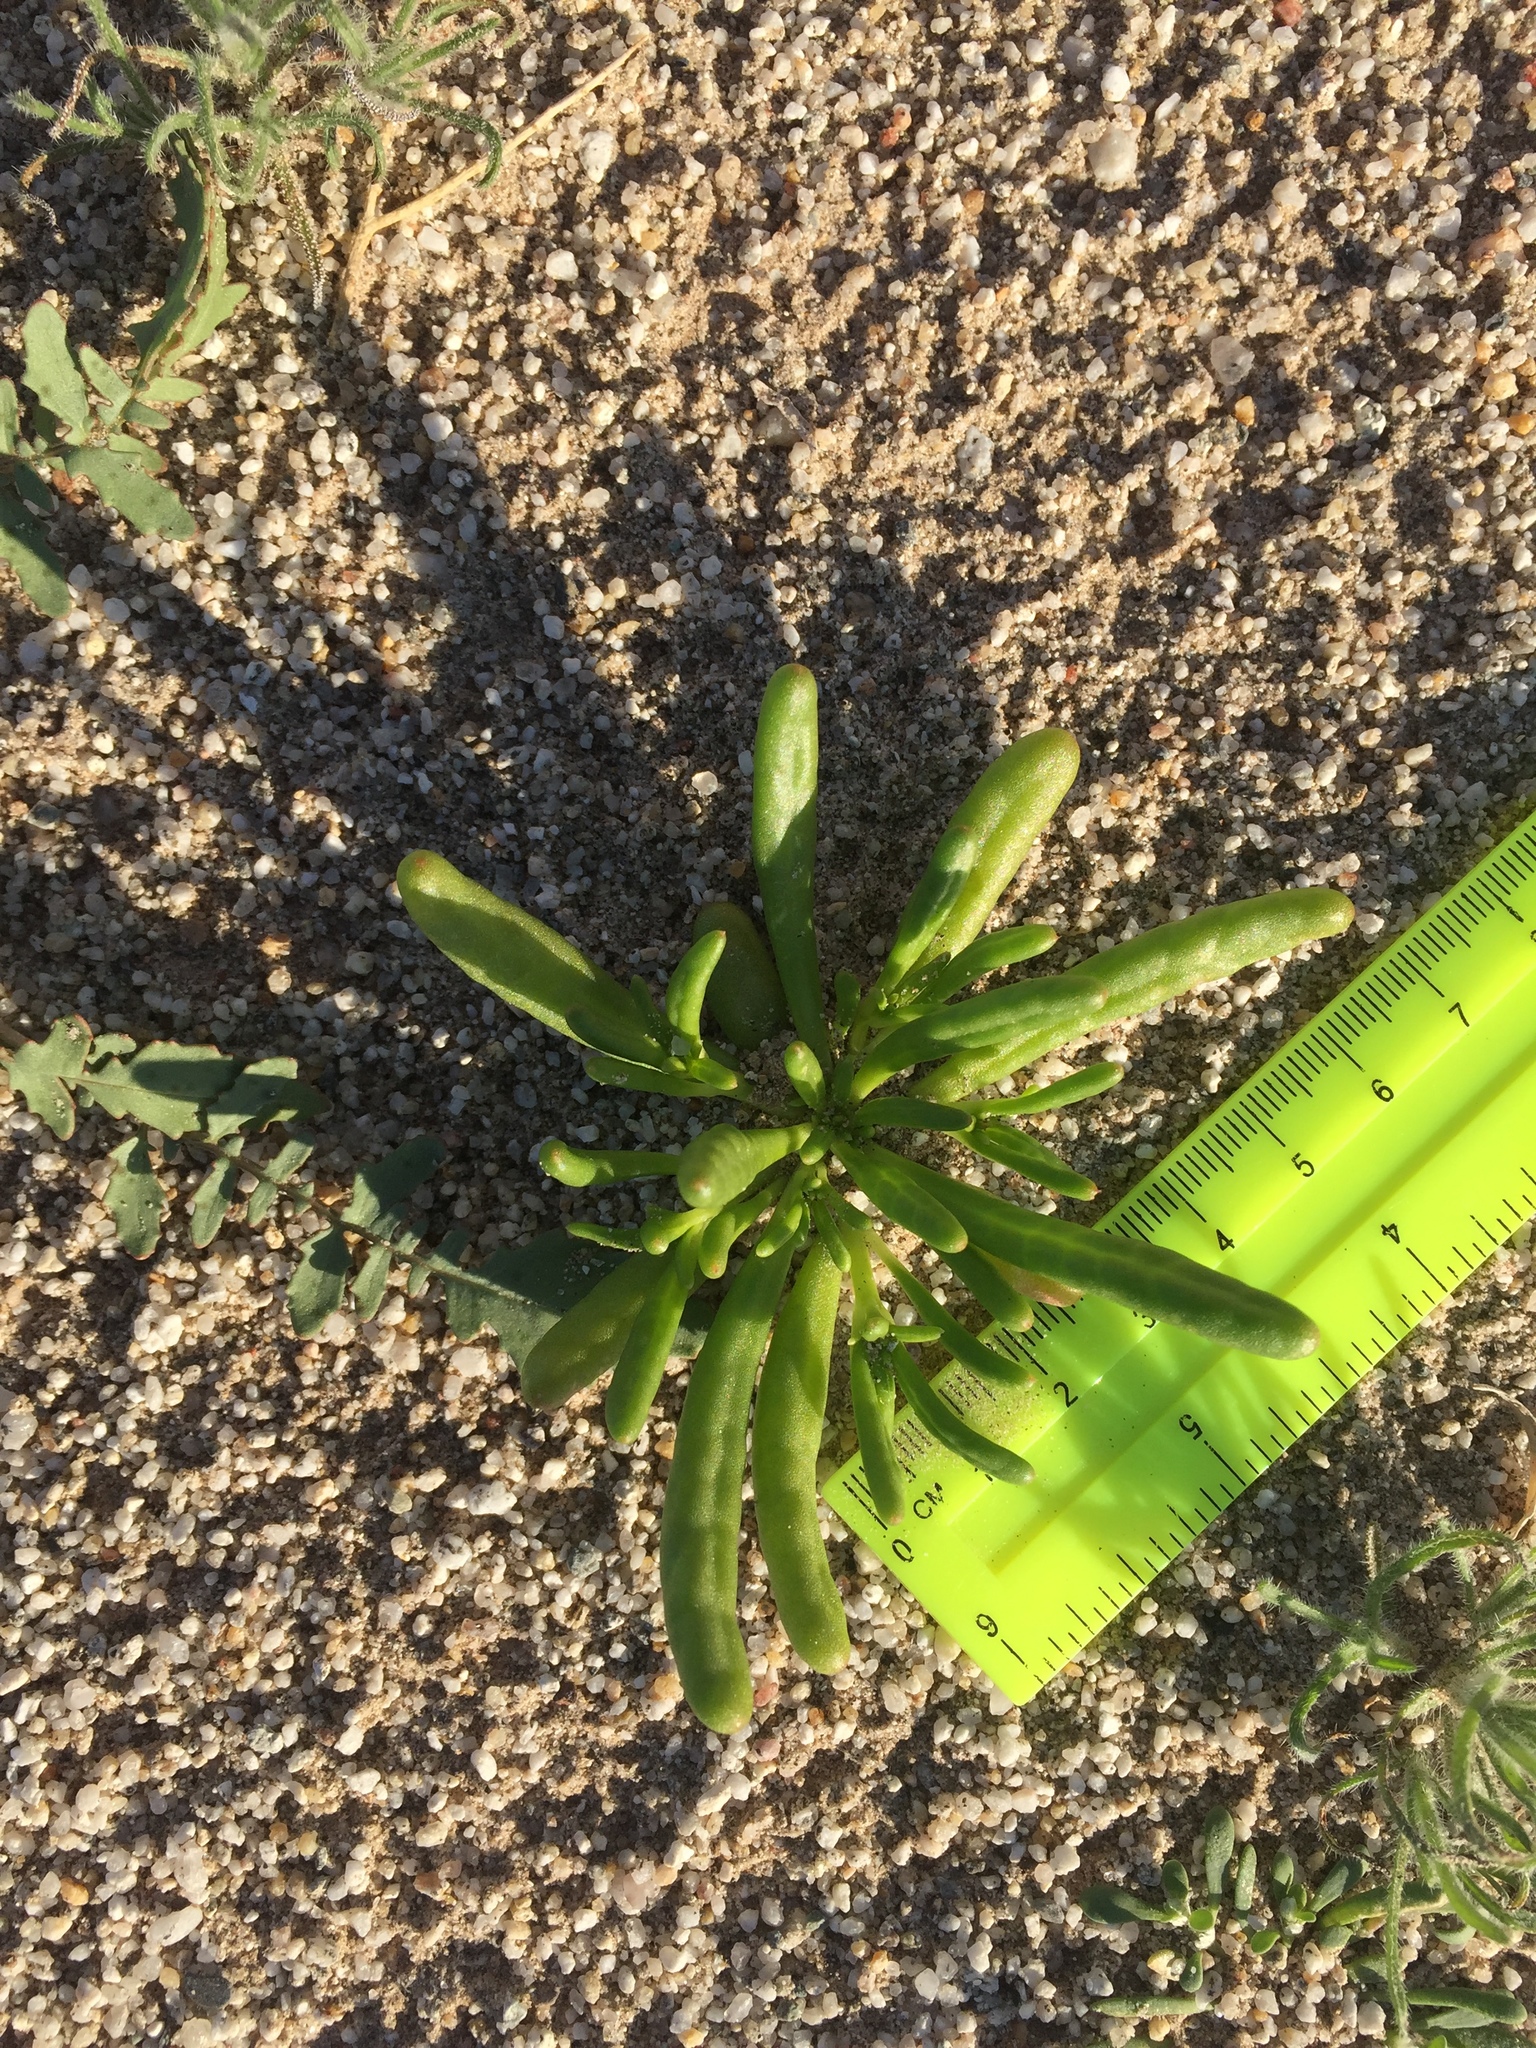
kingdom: Plantae
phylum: Tracheophyta
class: Magnoliopsida
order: Caryophyllales
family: Montiaceae
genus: Thingia
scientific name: Thingia ambigua
